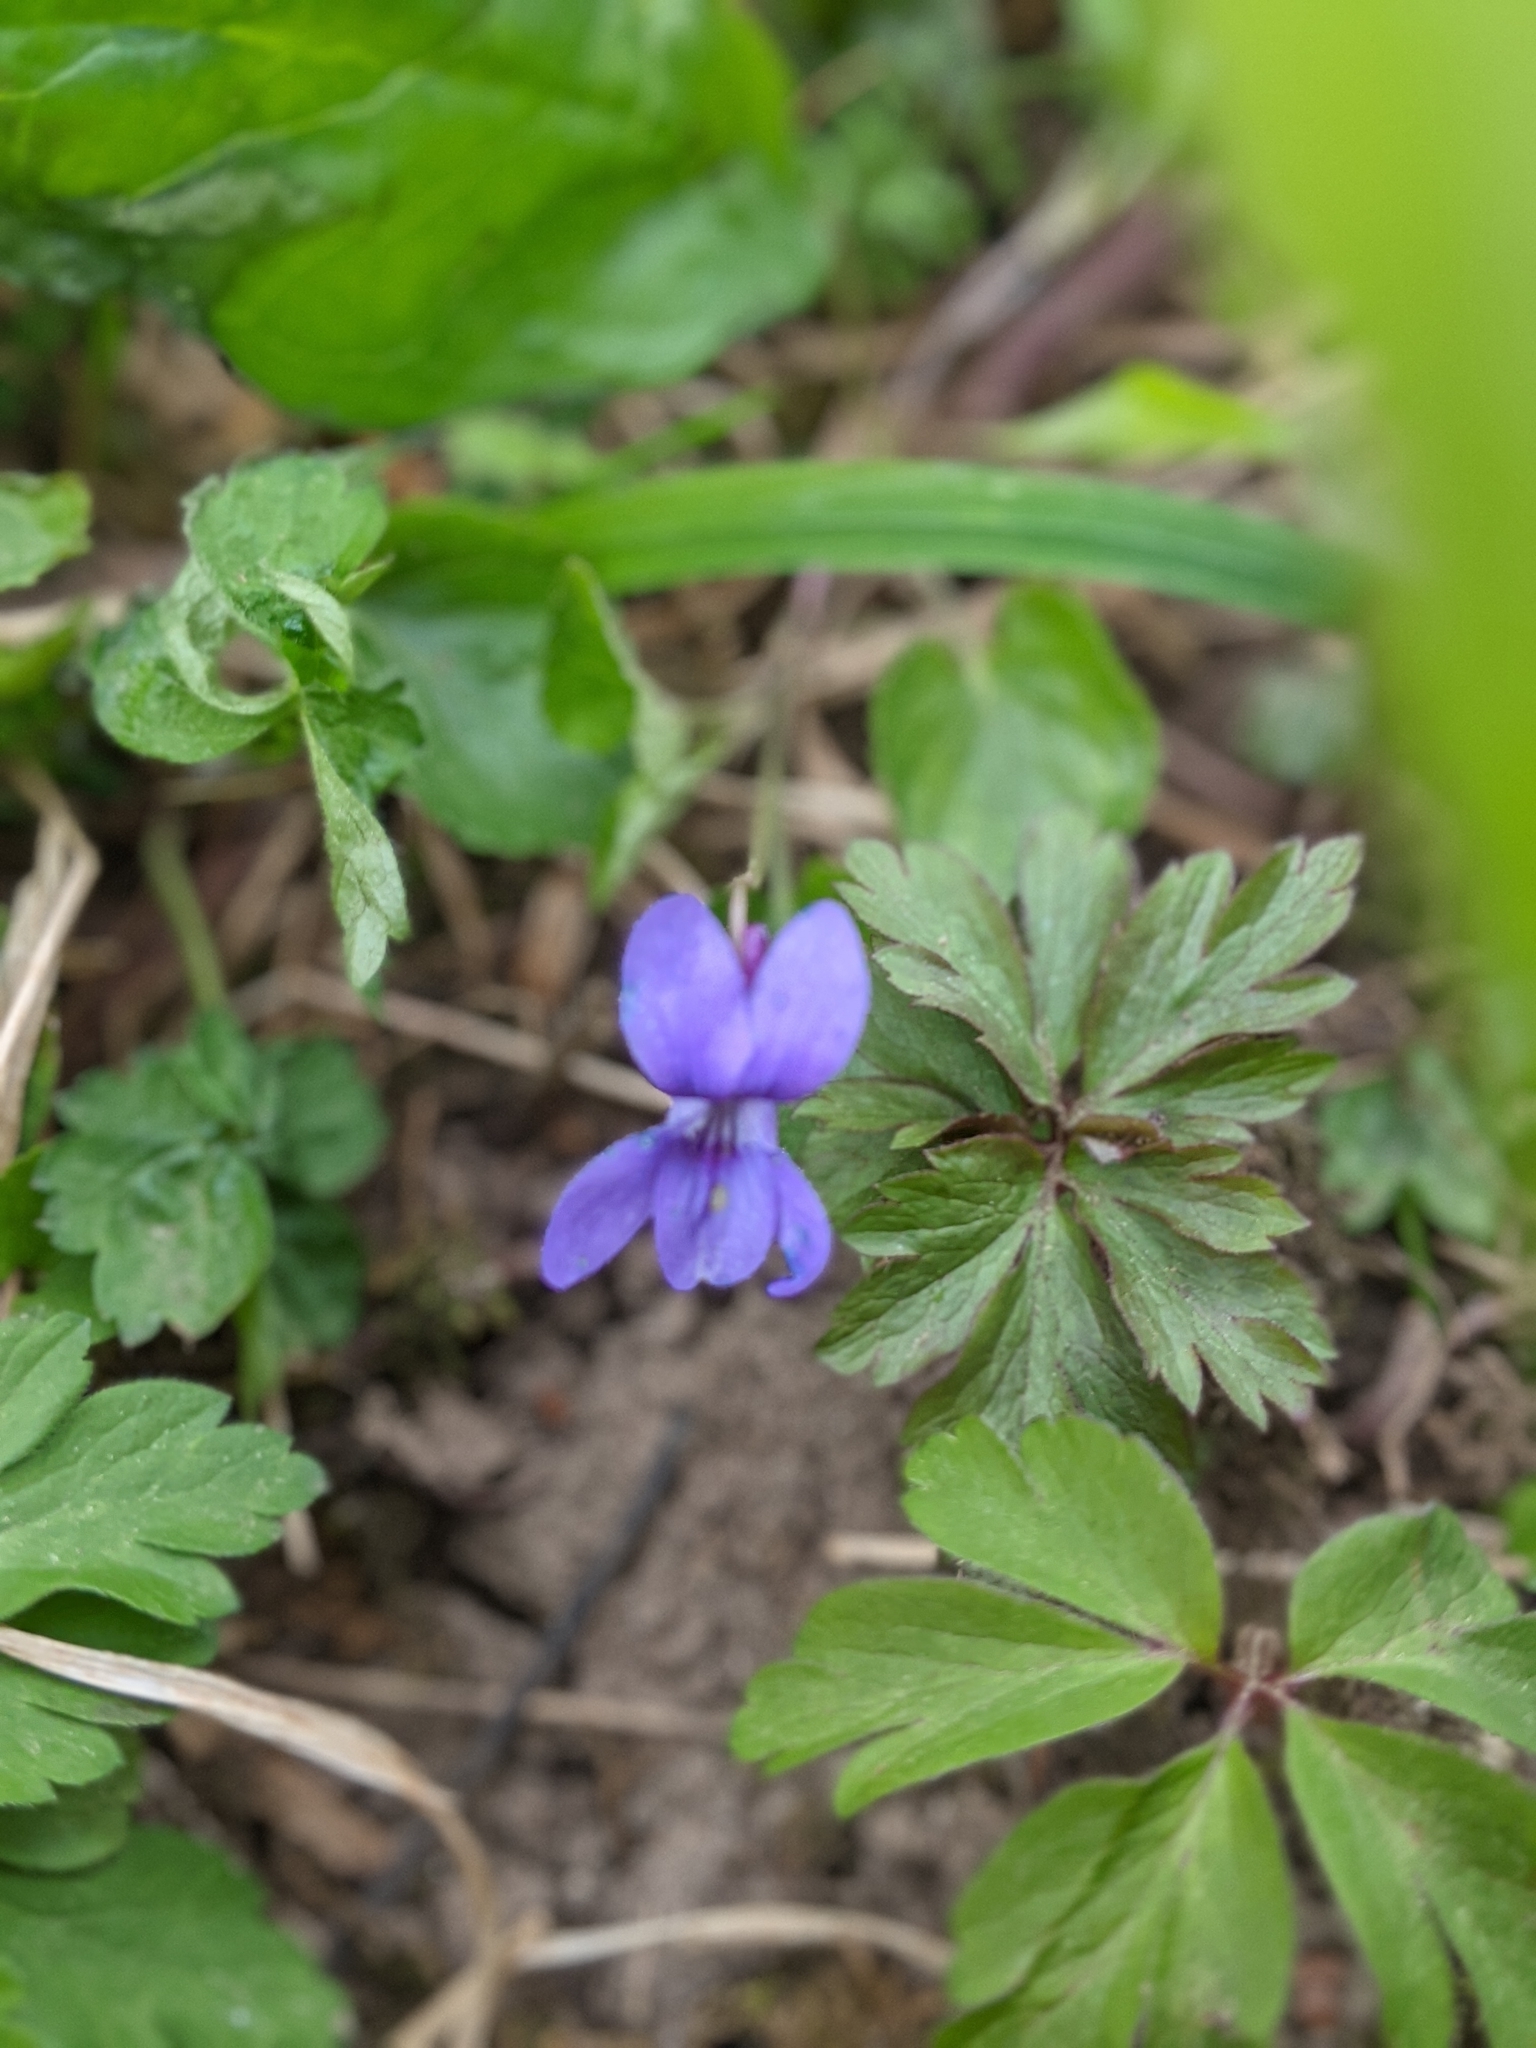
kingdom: Plantae
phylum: Tracheophyta
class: Magnoliopsida
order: Malpighiales
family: Violaceae
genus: Viola
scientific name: Viola reichenbachiana
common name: Early dog-violet
